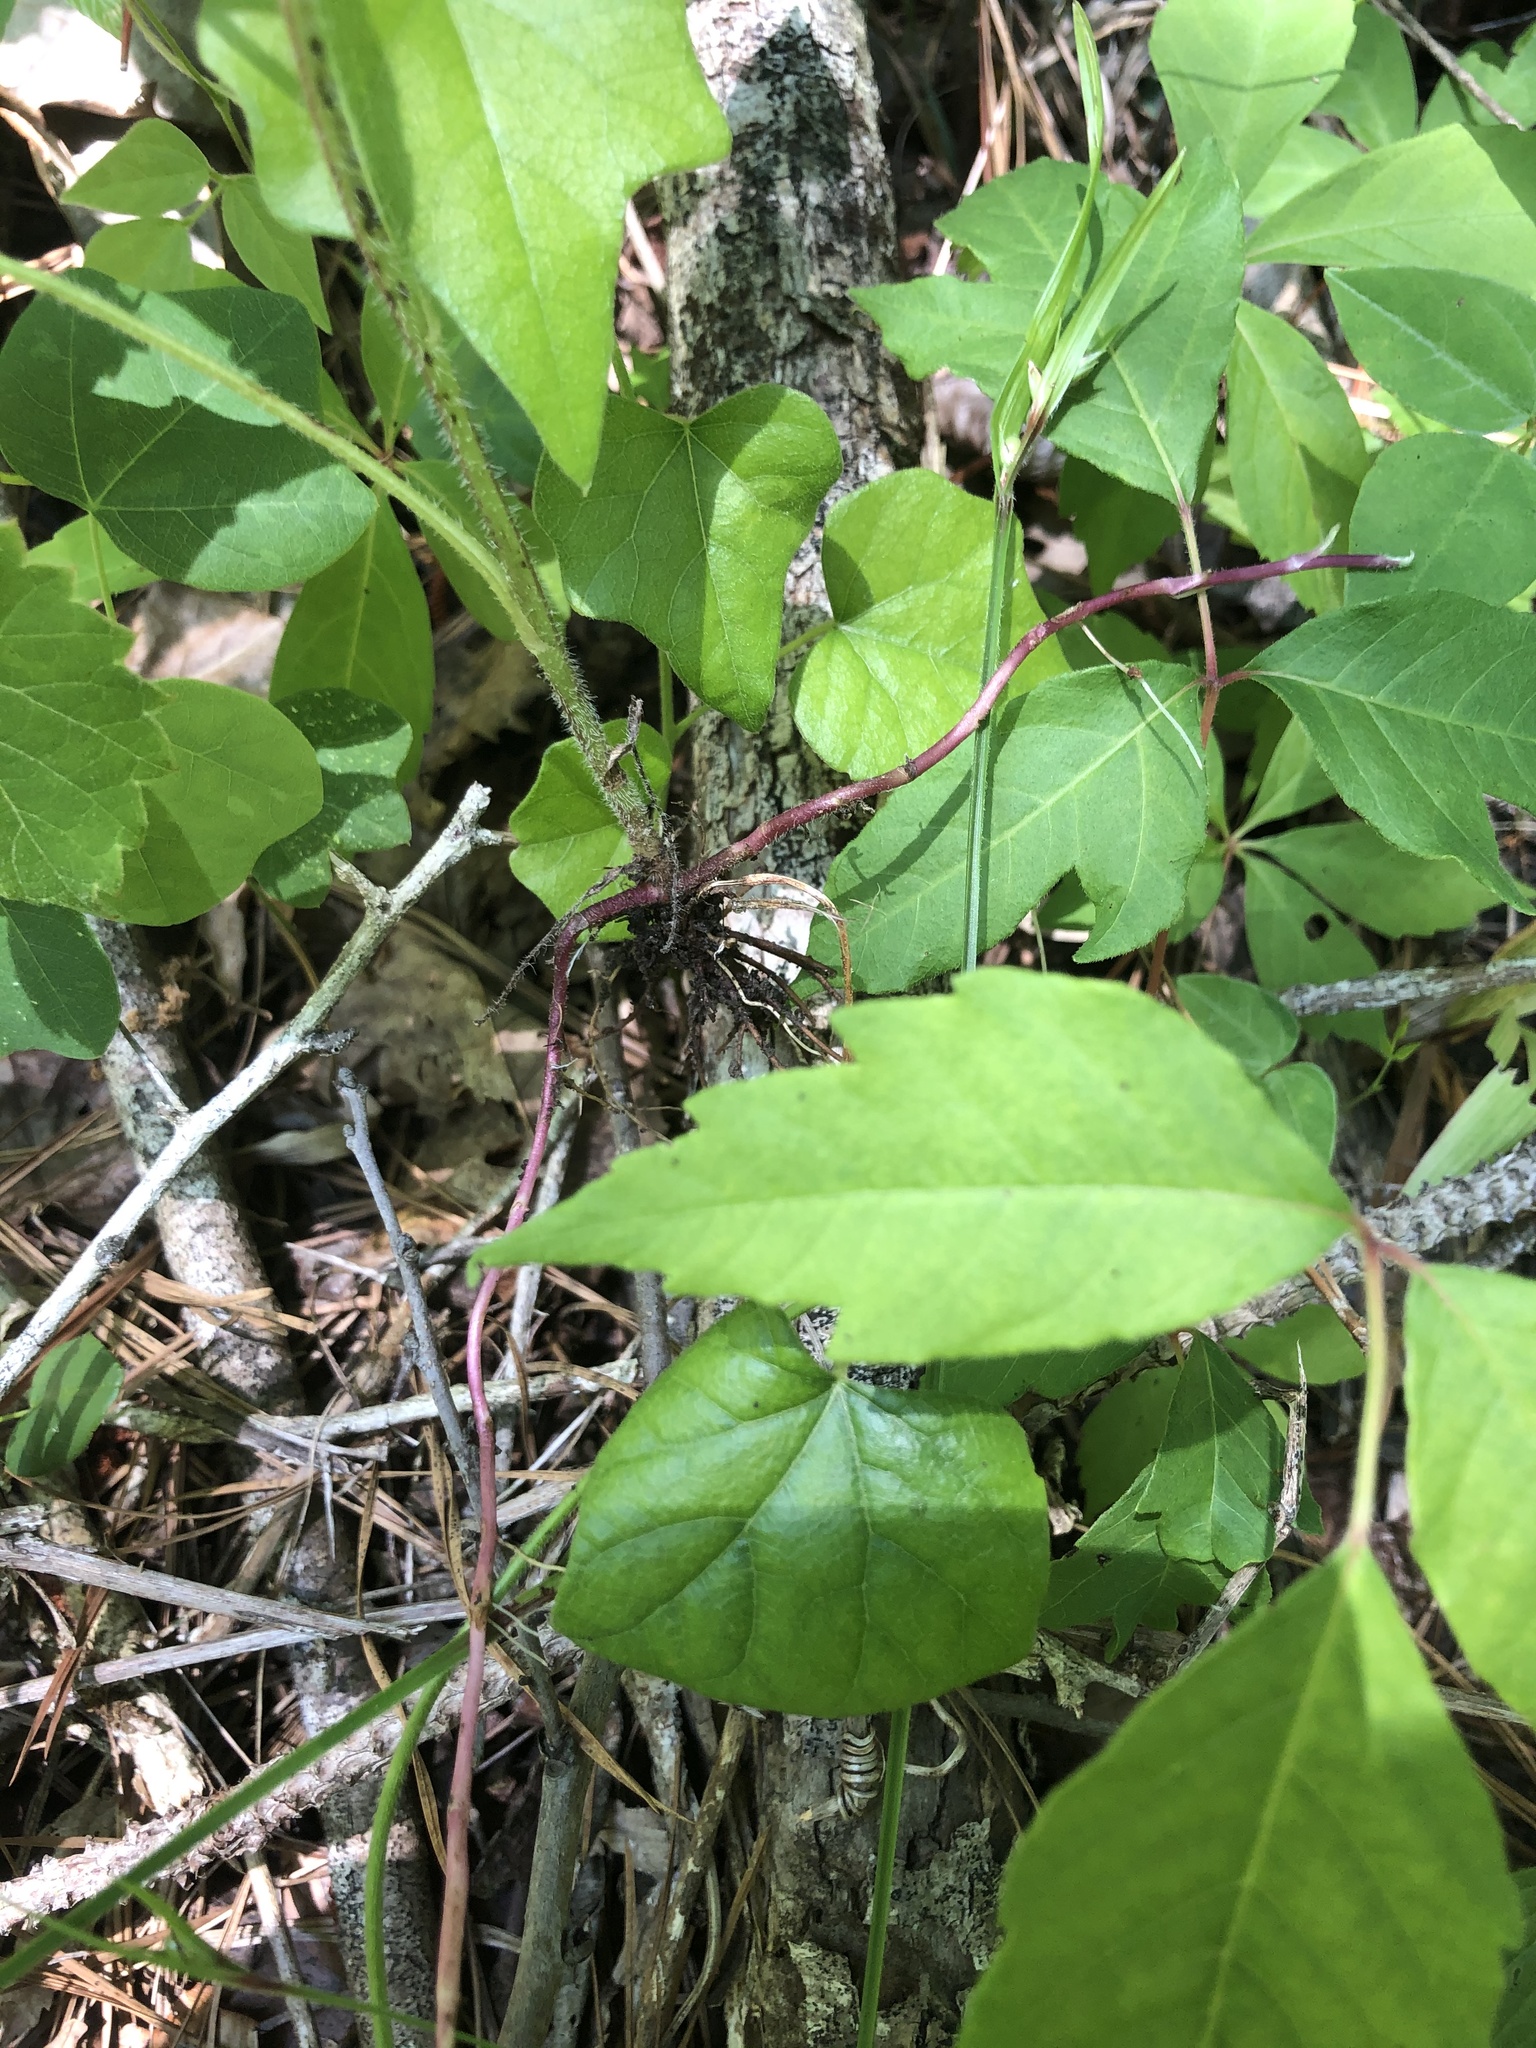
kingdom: Plantae
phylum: Tracheophyta
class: Magnoliopsida
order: Asterales
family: Asteraceae
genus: Rudbeckia
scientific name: Rudbeckia terranigrae
